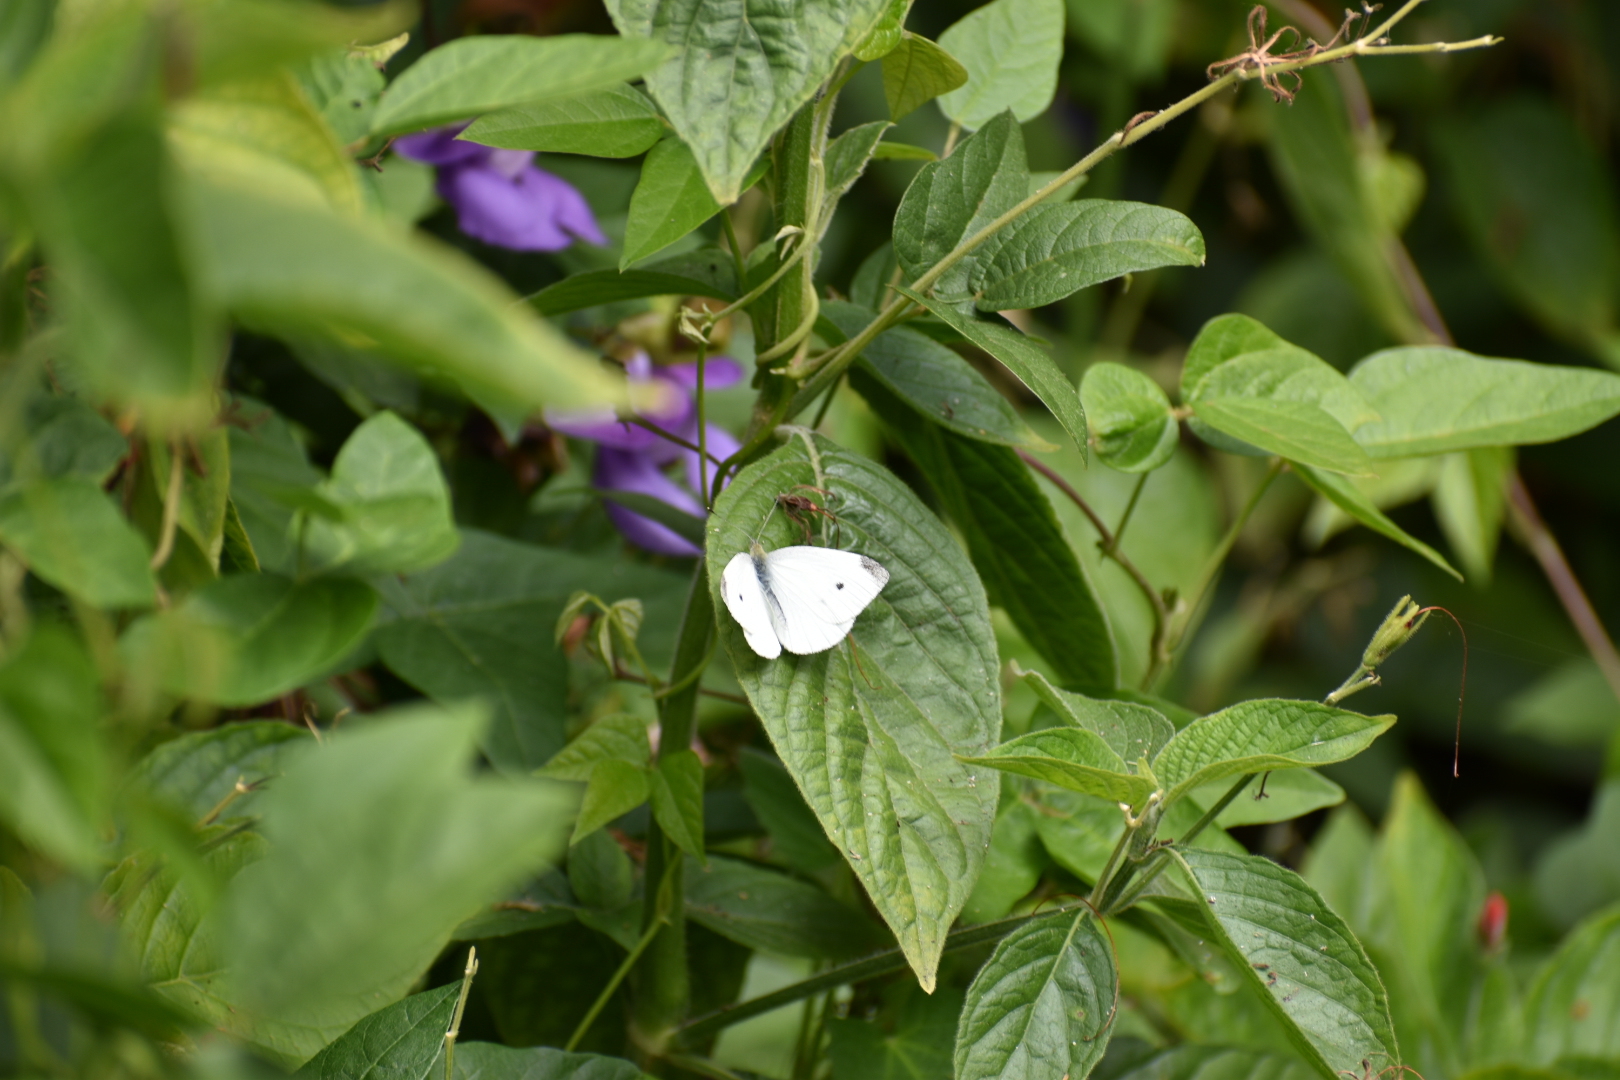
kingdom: Animalia
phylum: Arthropoda
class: Insecta
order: Lepidoptera
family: Pieridae
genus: Pieris
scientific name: Pieris rapae
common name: Small white
